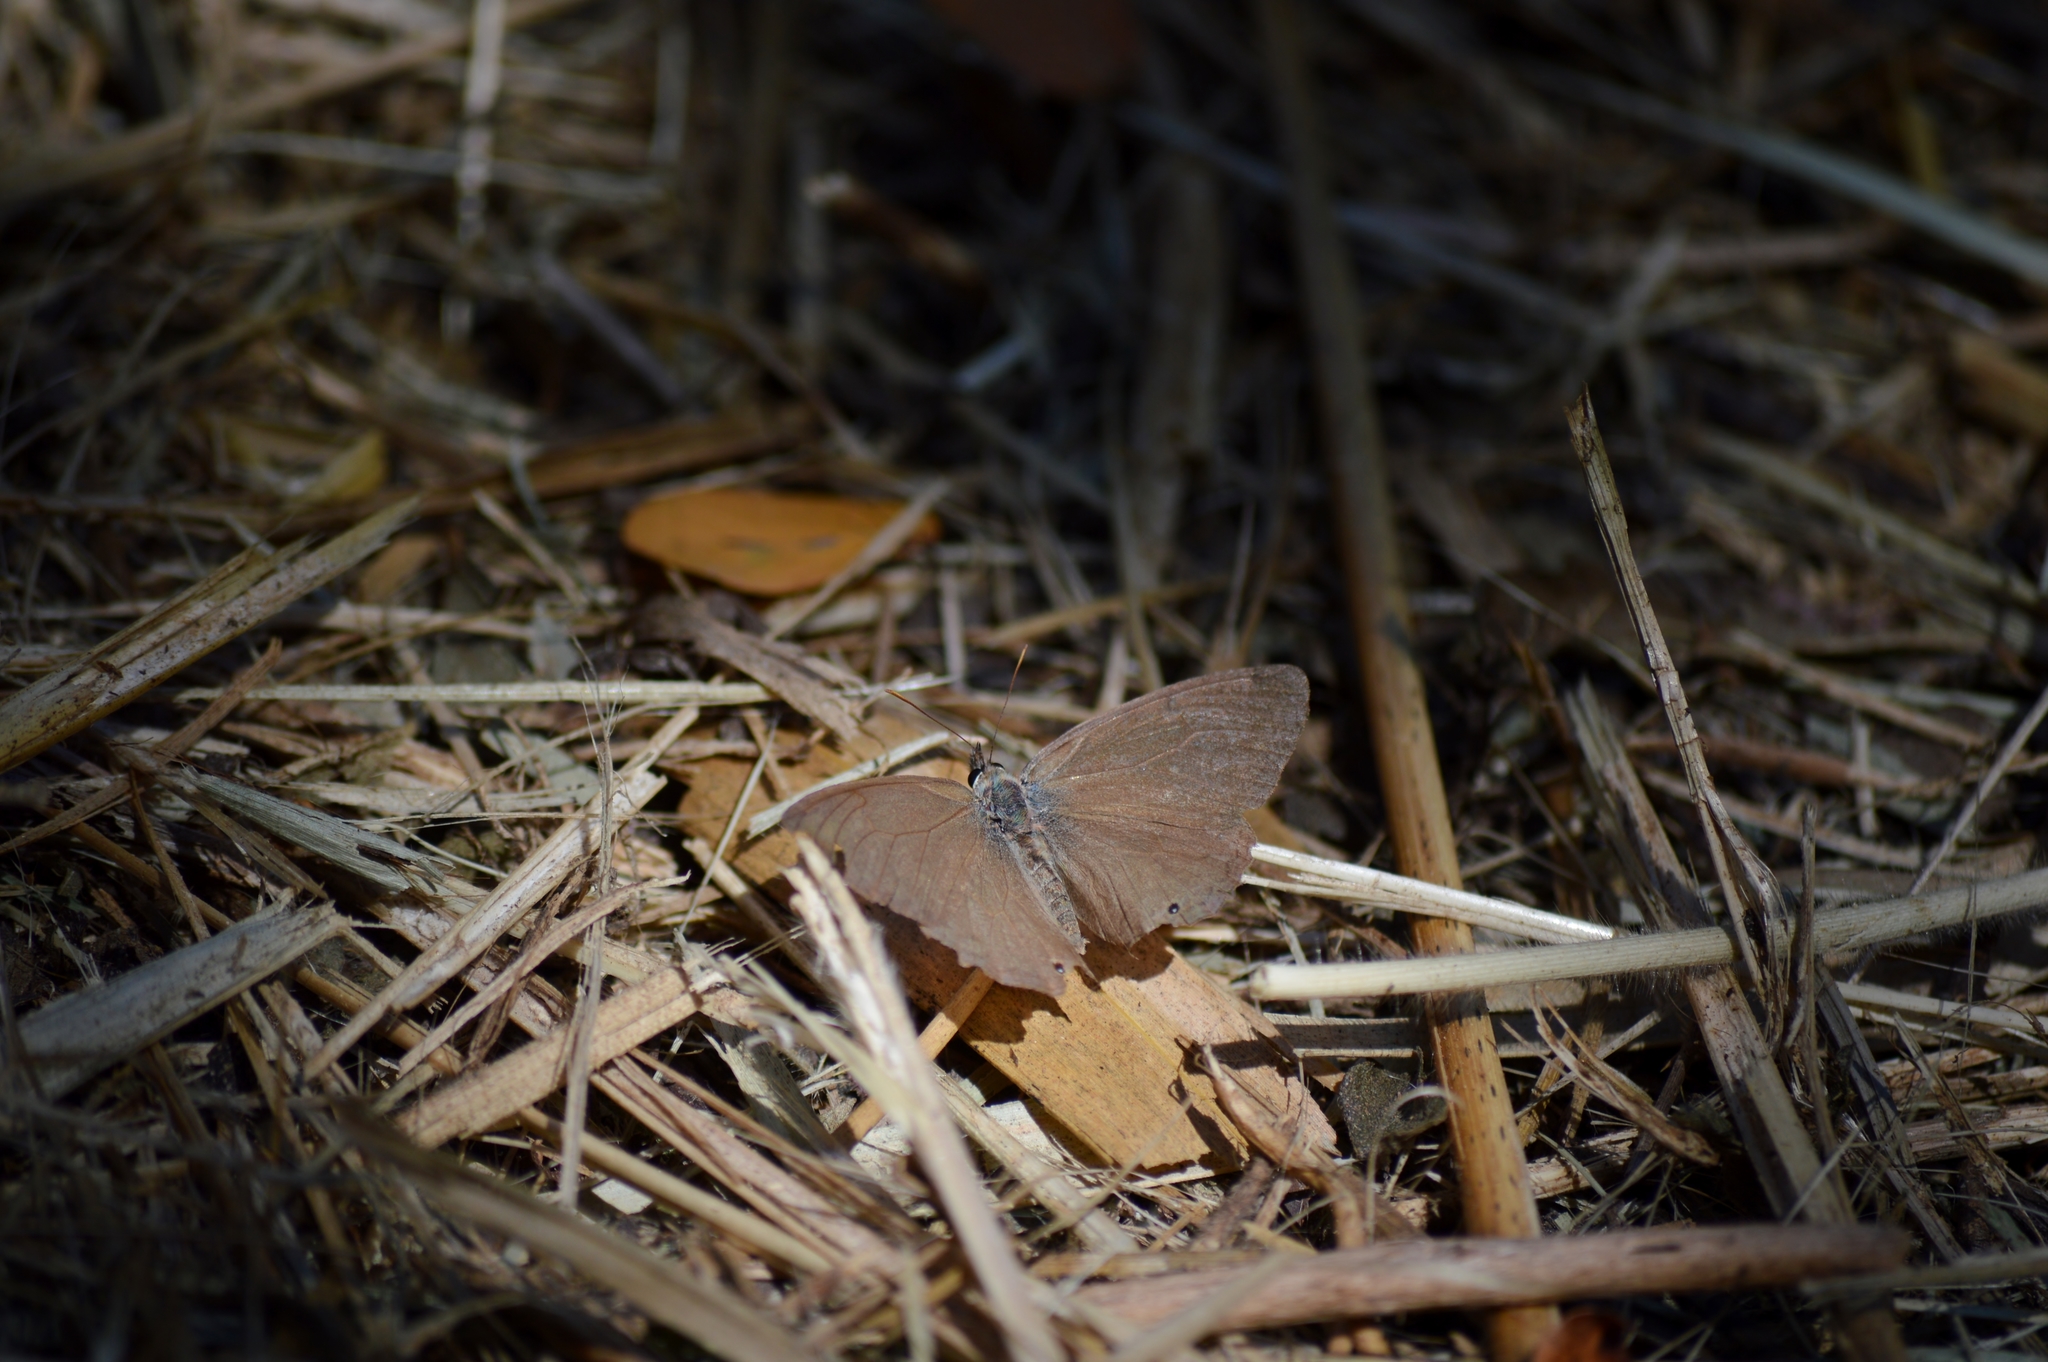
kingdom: Animalia
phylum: Arthropoda
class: Insecta
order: Lepidoptera
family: Nymphalidae
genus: Hermeuptychia
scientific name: Hermeuptychia hermes
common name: Hermes satyr
